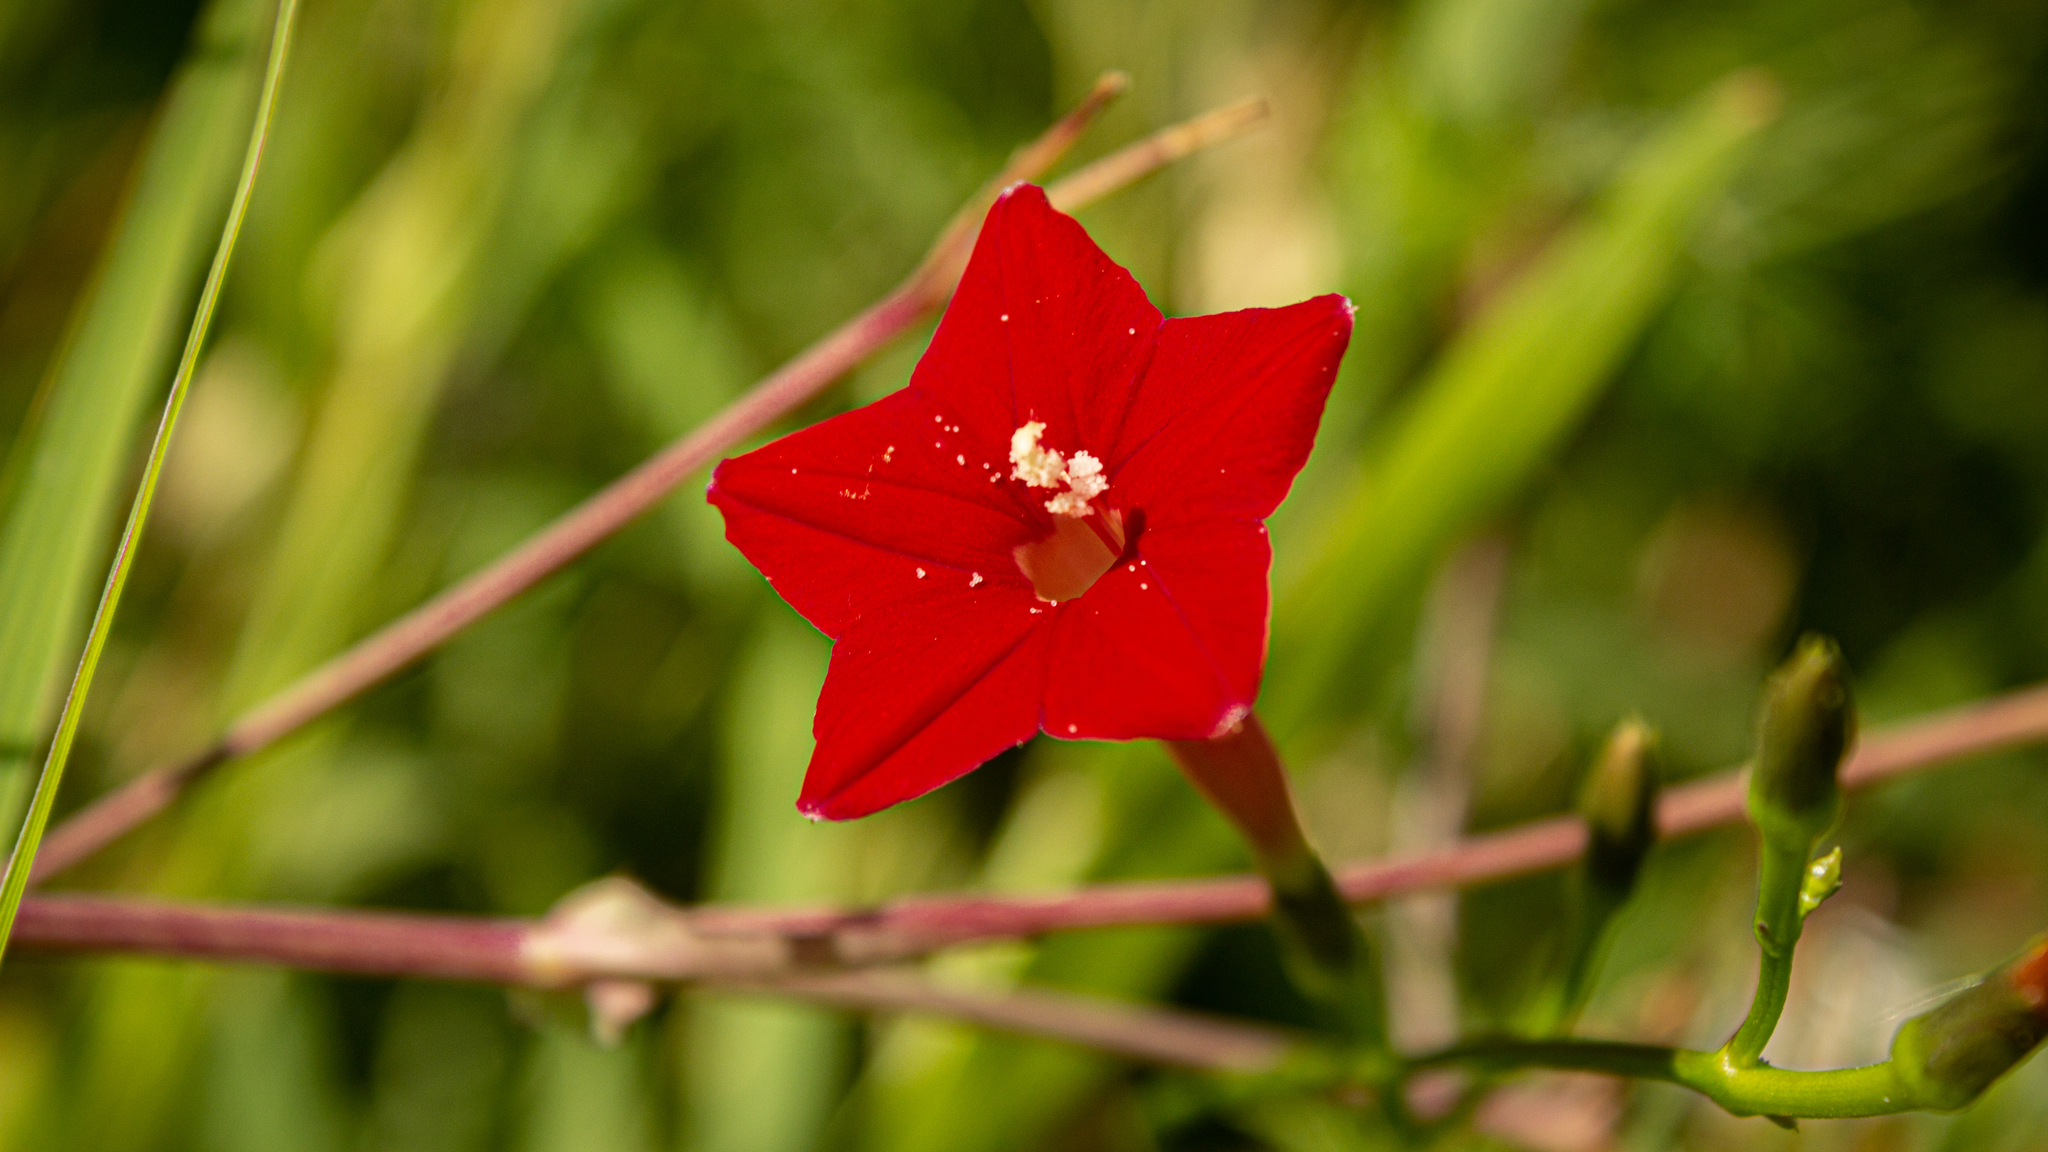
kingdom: Plantae
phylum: Tracheophyta
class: Magnoliopsida
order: Solanales
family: Convolvulaceae
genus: Ipomoea
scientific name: Ipomoea quamoclit
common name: Cypress vine
